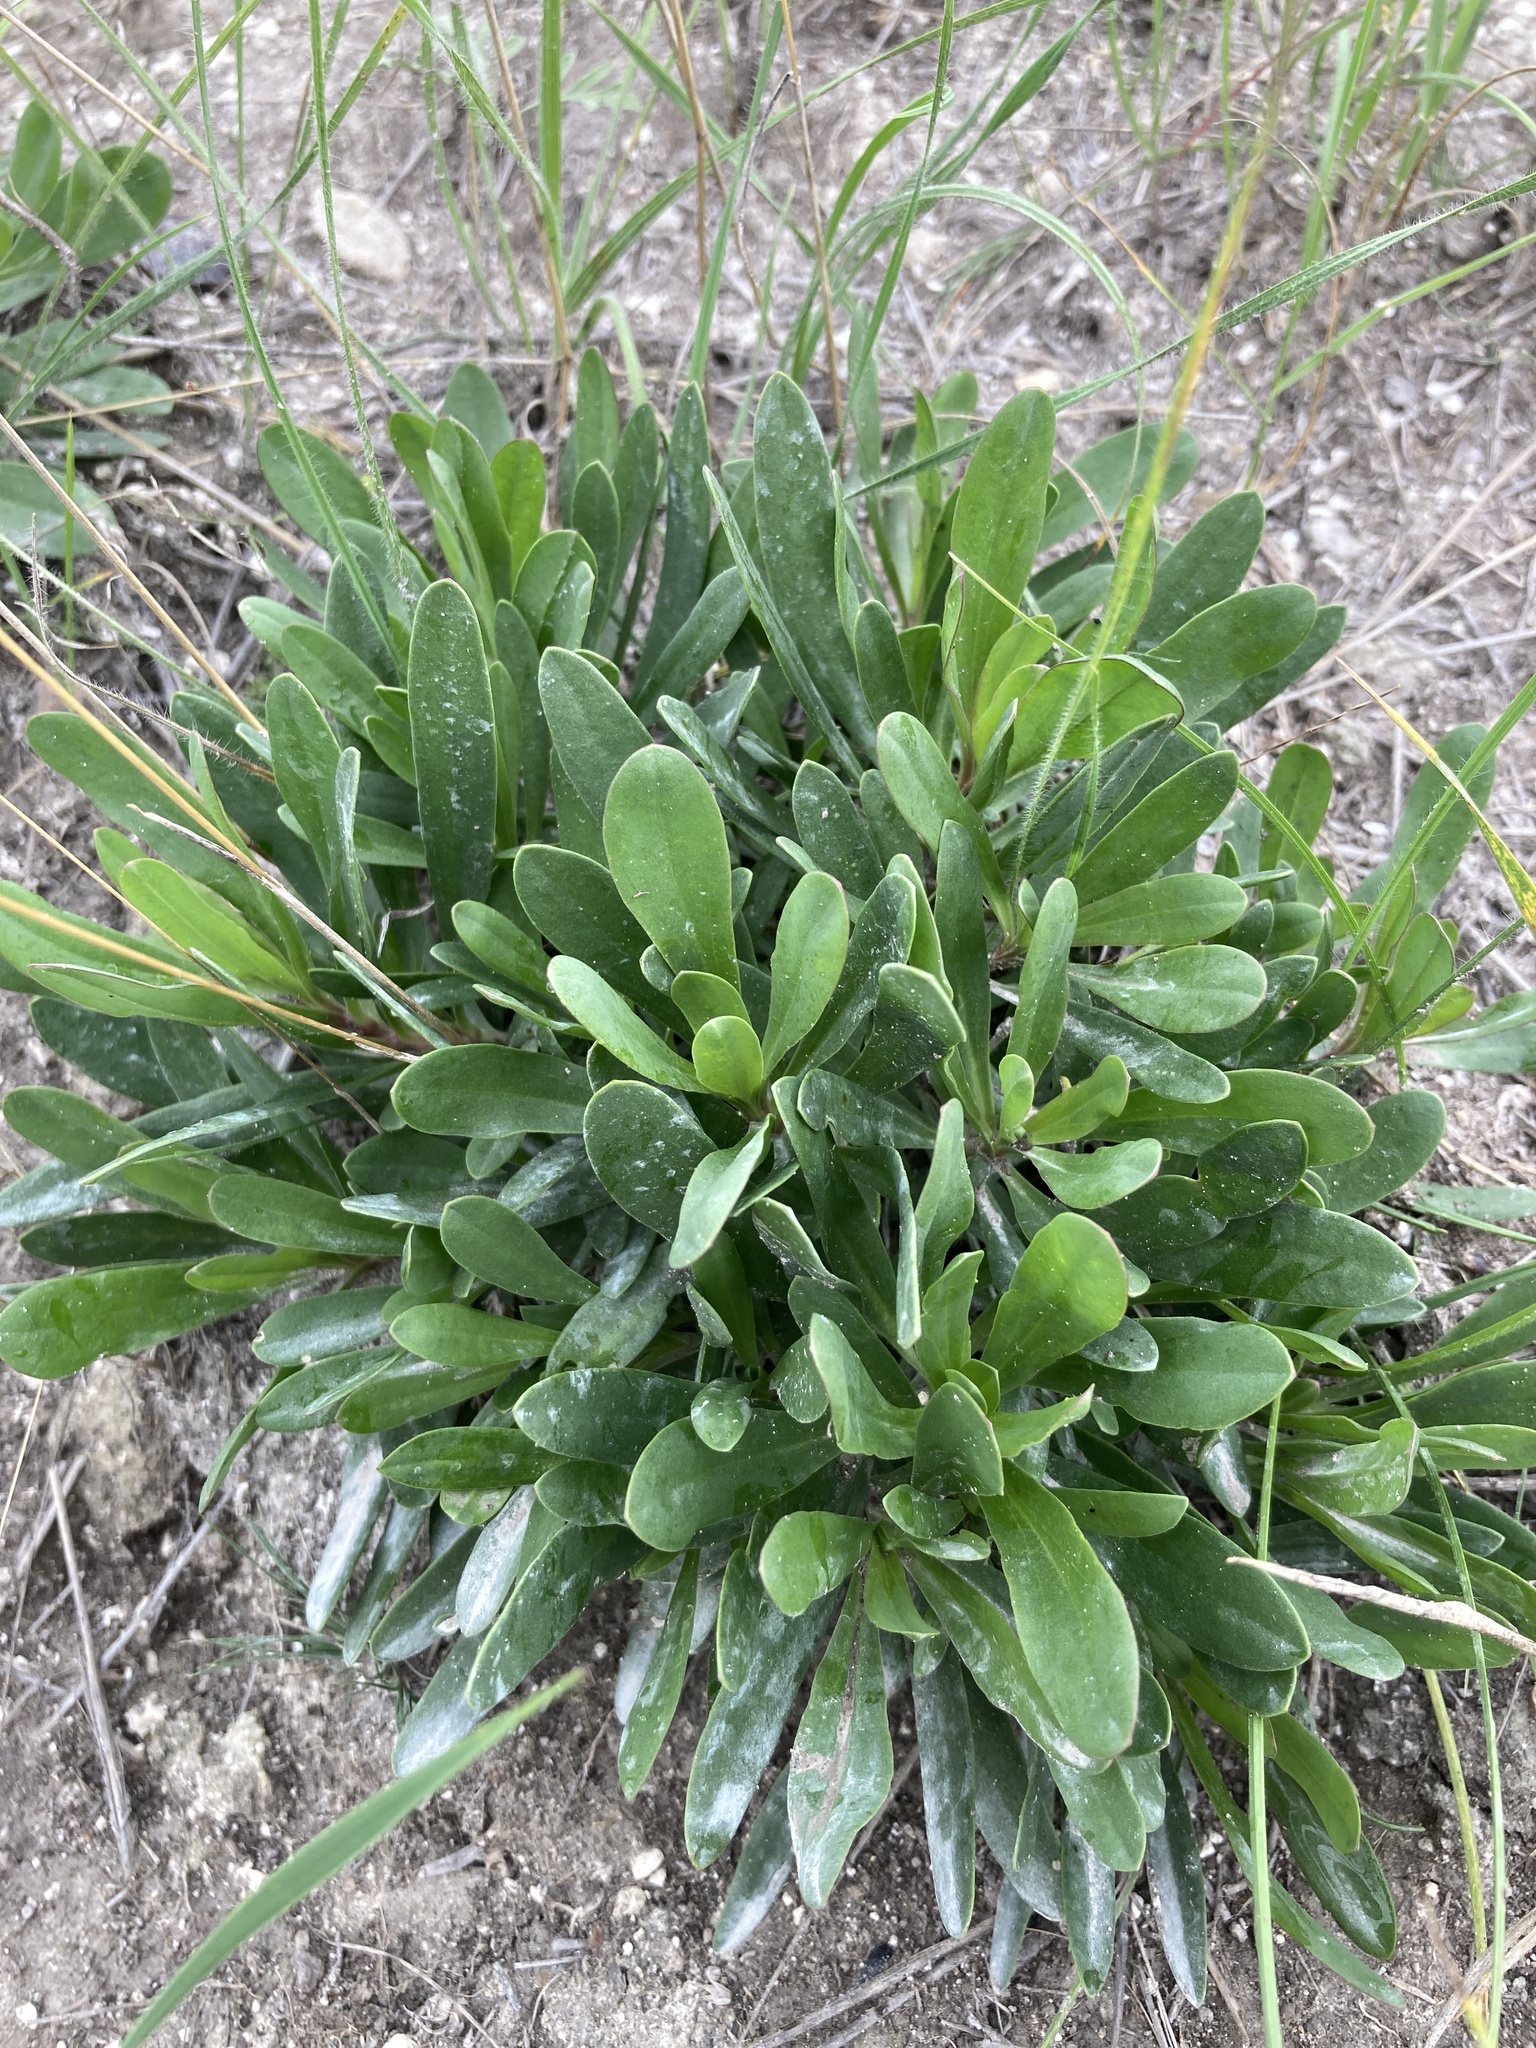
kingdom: Plantae
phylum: Tracheophyta
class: Magnoliopsida
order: Caryophyllales
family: Caryophyllaceae
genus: Gypsophila
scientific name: Gypsophila altissima
